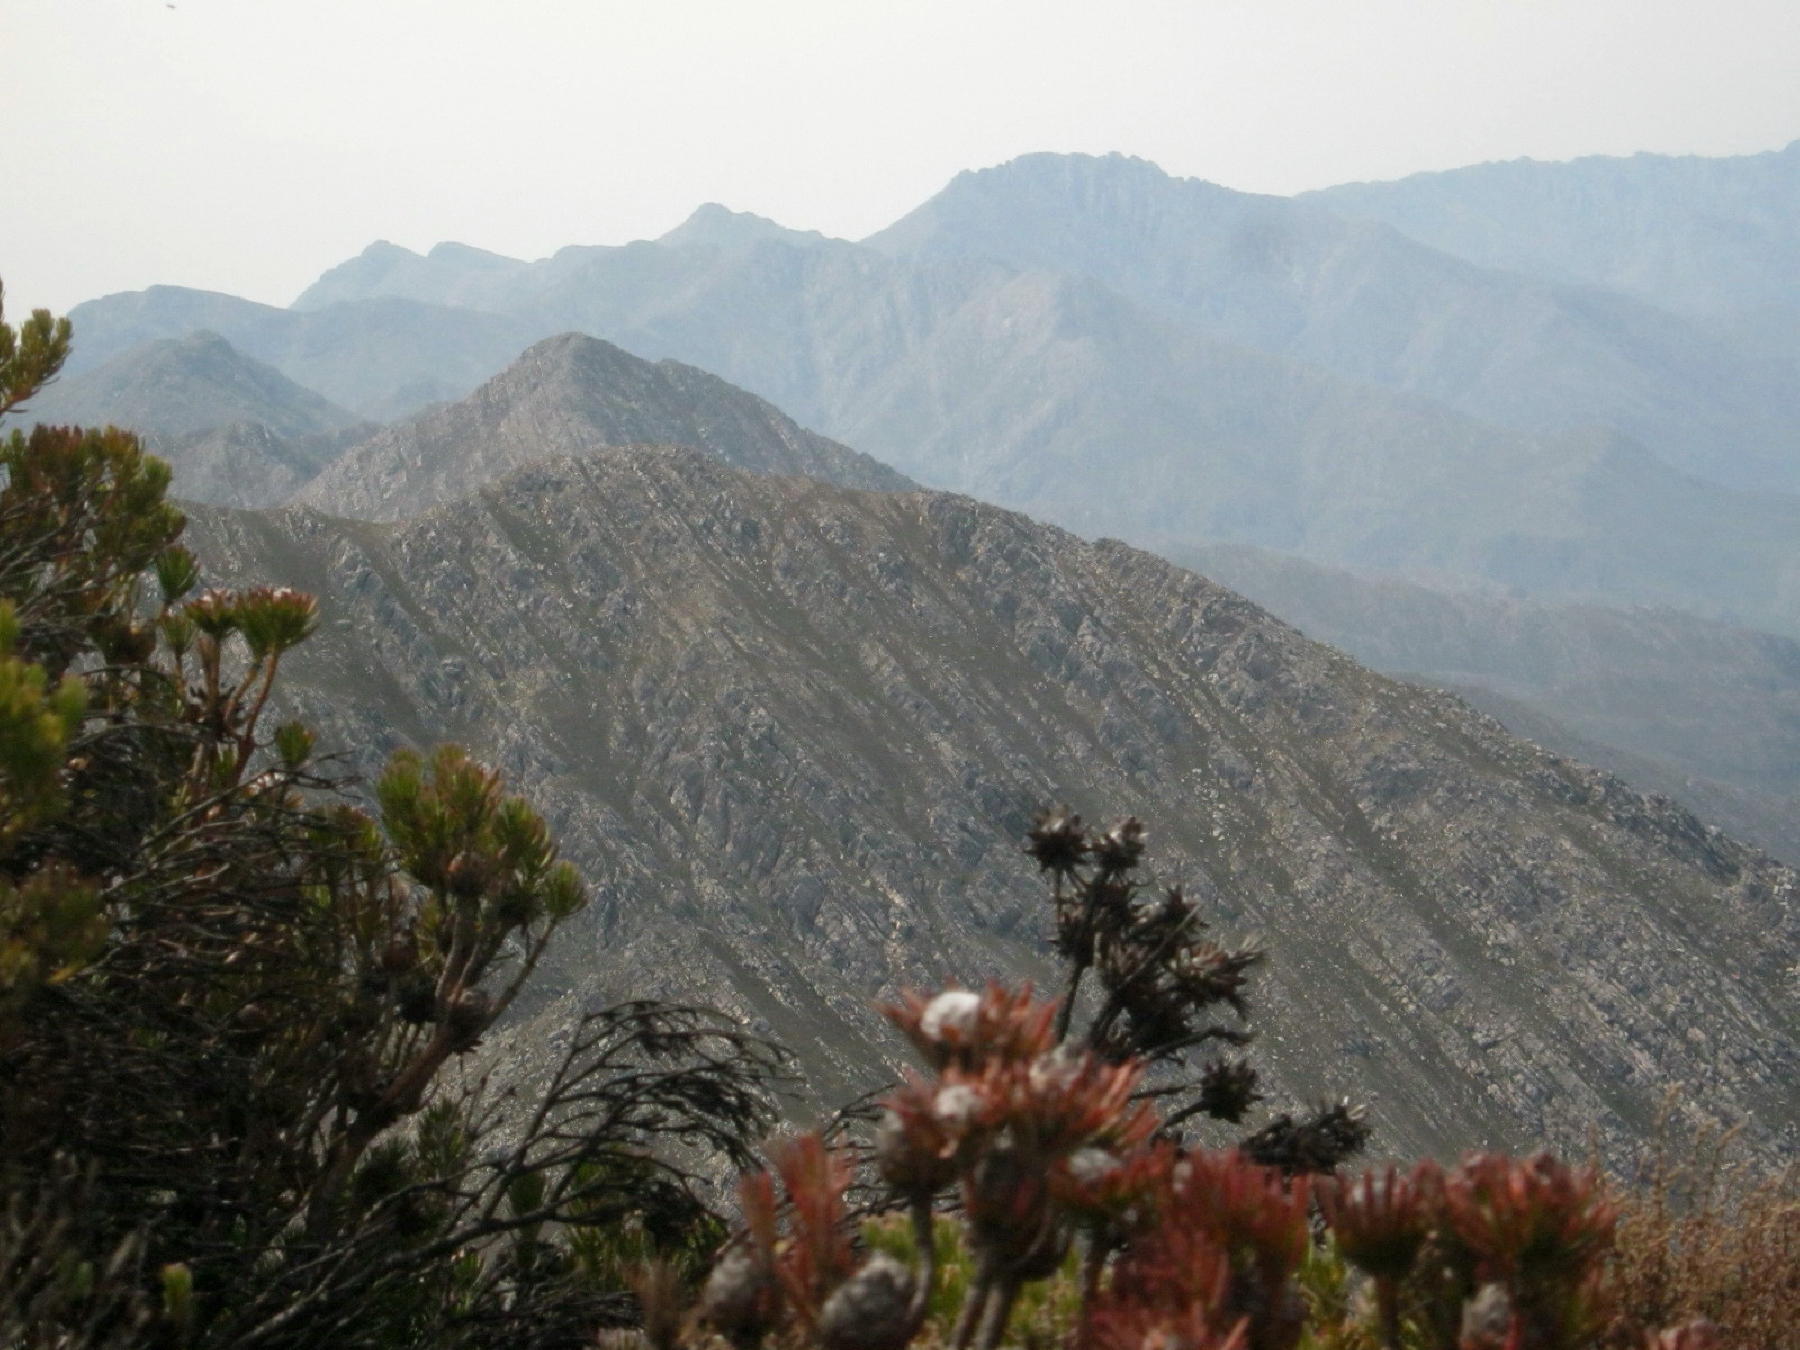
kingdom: Plantae
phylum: Tracheophyta
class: Magnoliopsida
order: Proteales
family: Proteaceae
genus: Leucadendron
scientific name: Leucadendron dregei
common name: Summit conebush
